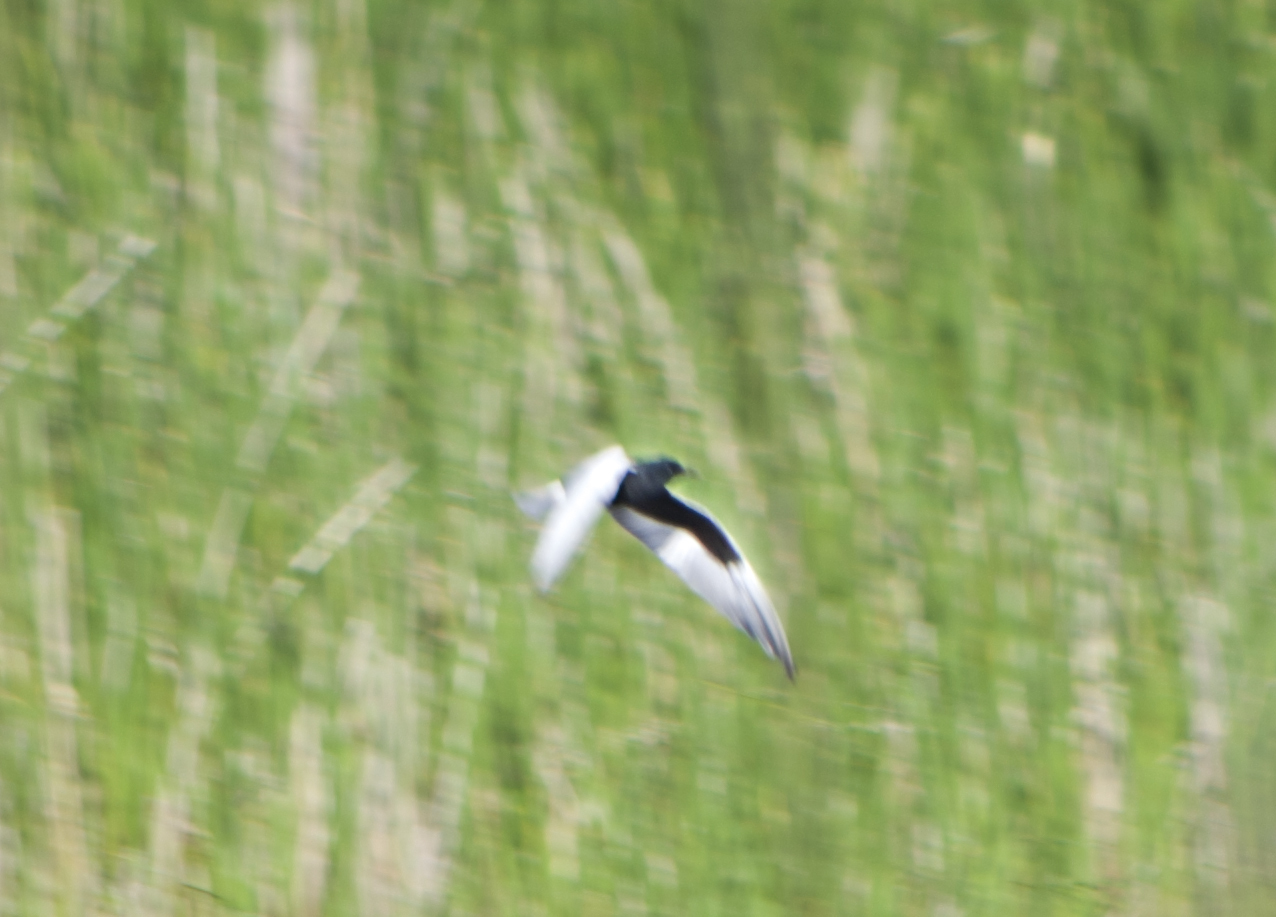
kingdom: Animalia
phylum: Chordata
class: Aves
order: Charadriiformes
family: Laridae
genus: Chlidonias
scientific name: Chlidonias leucopterus
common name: White-winged tern
